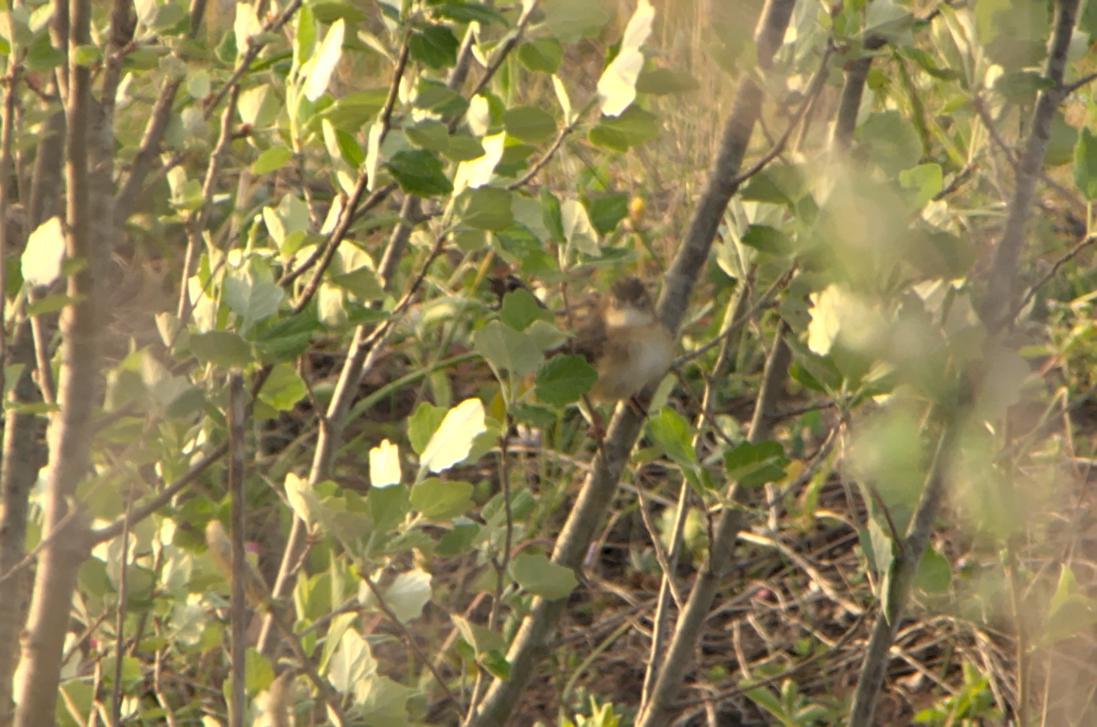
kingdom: Animalia
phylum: Chordata
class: Aves
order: Passeriformes
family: Cisticolidae
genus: Cisticola
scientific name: Cisticola juncidis
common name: Zitting cisticola
